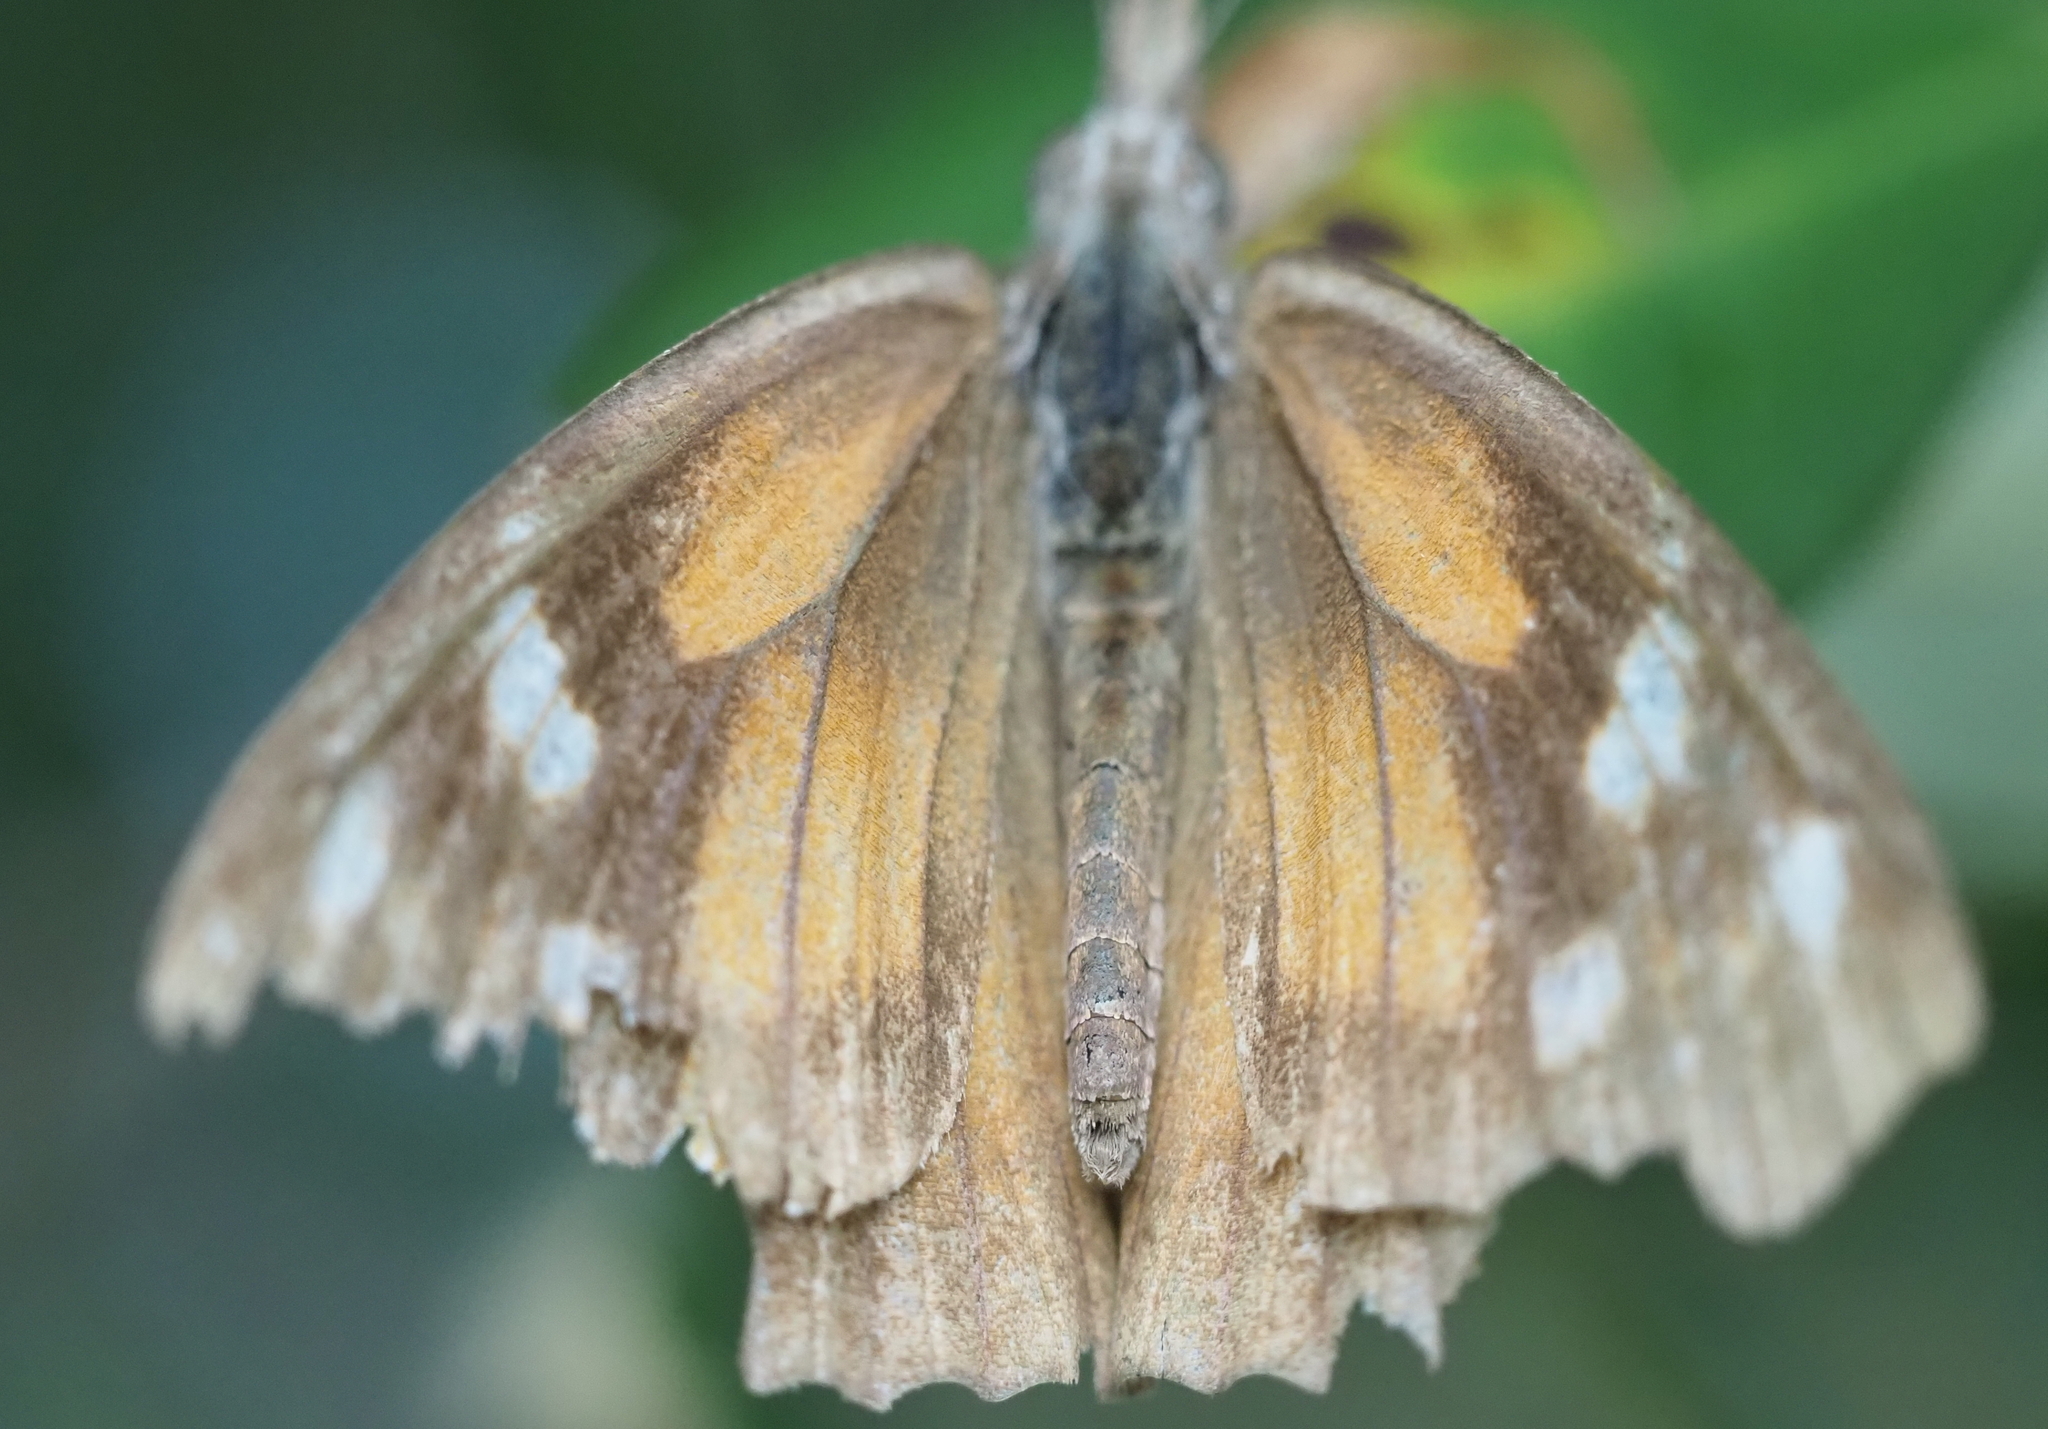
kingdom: Animalia
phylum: Arthropoda
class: Insecta
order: Lepidoptera
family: Nymphalidae
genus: Libytheana
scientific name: Libytheana carinenta
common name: American snout
